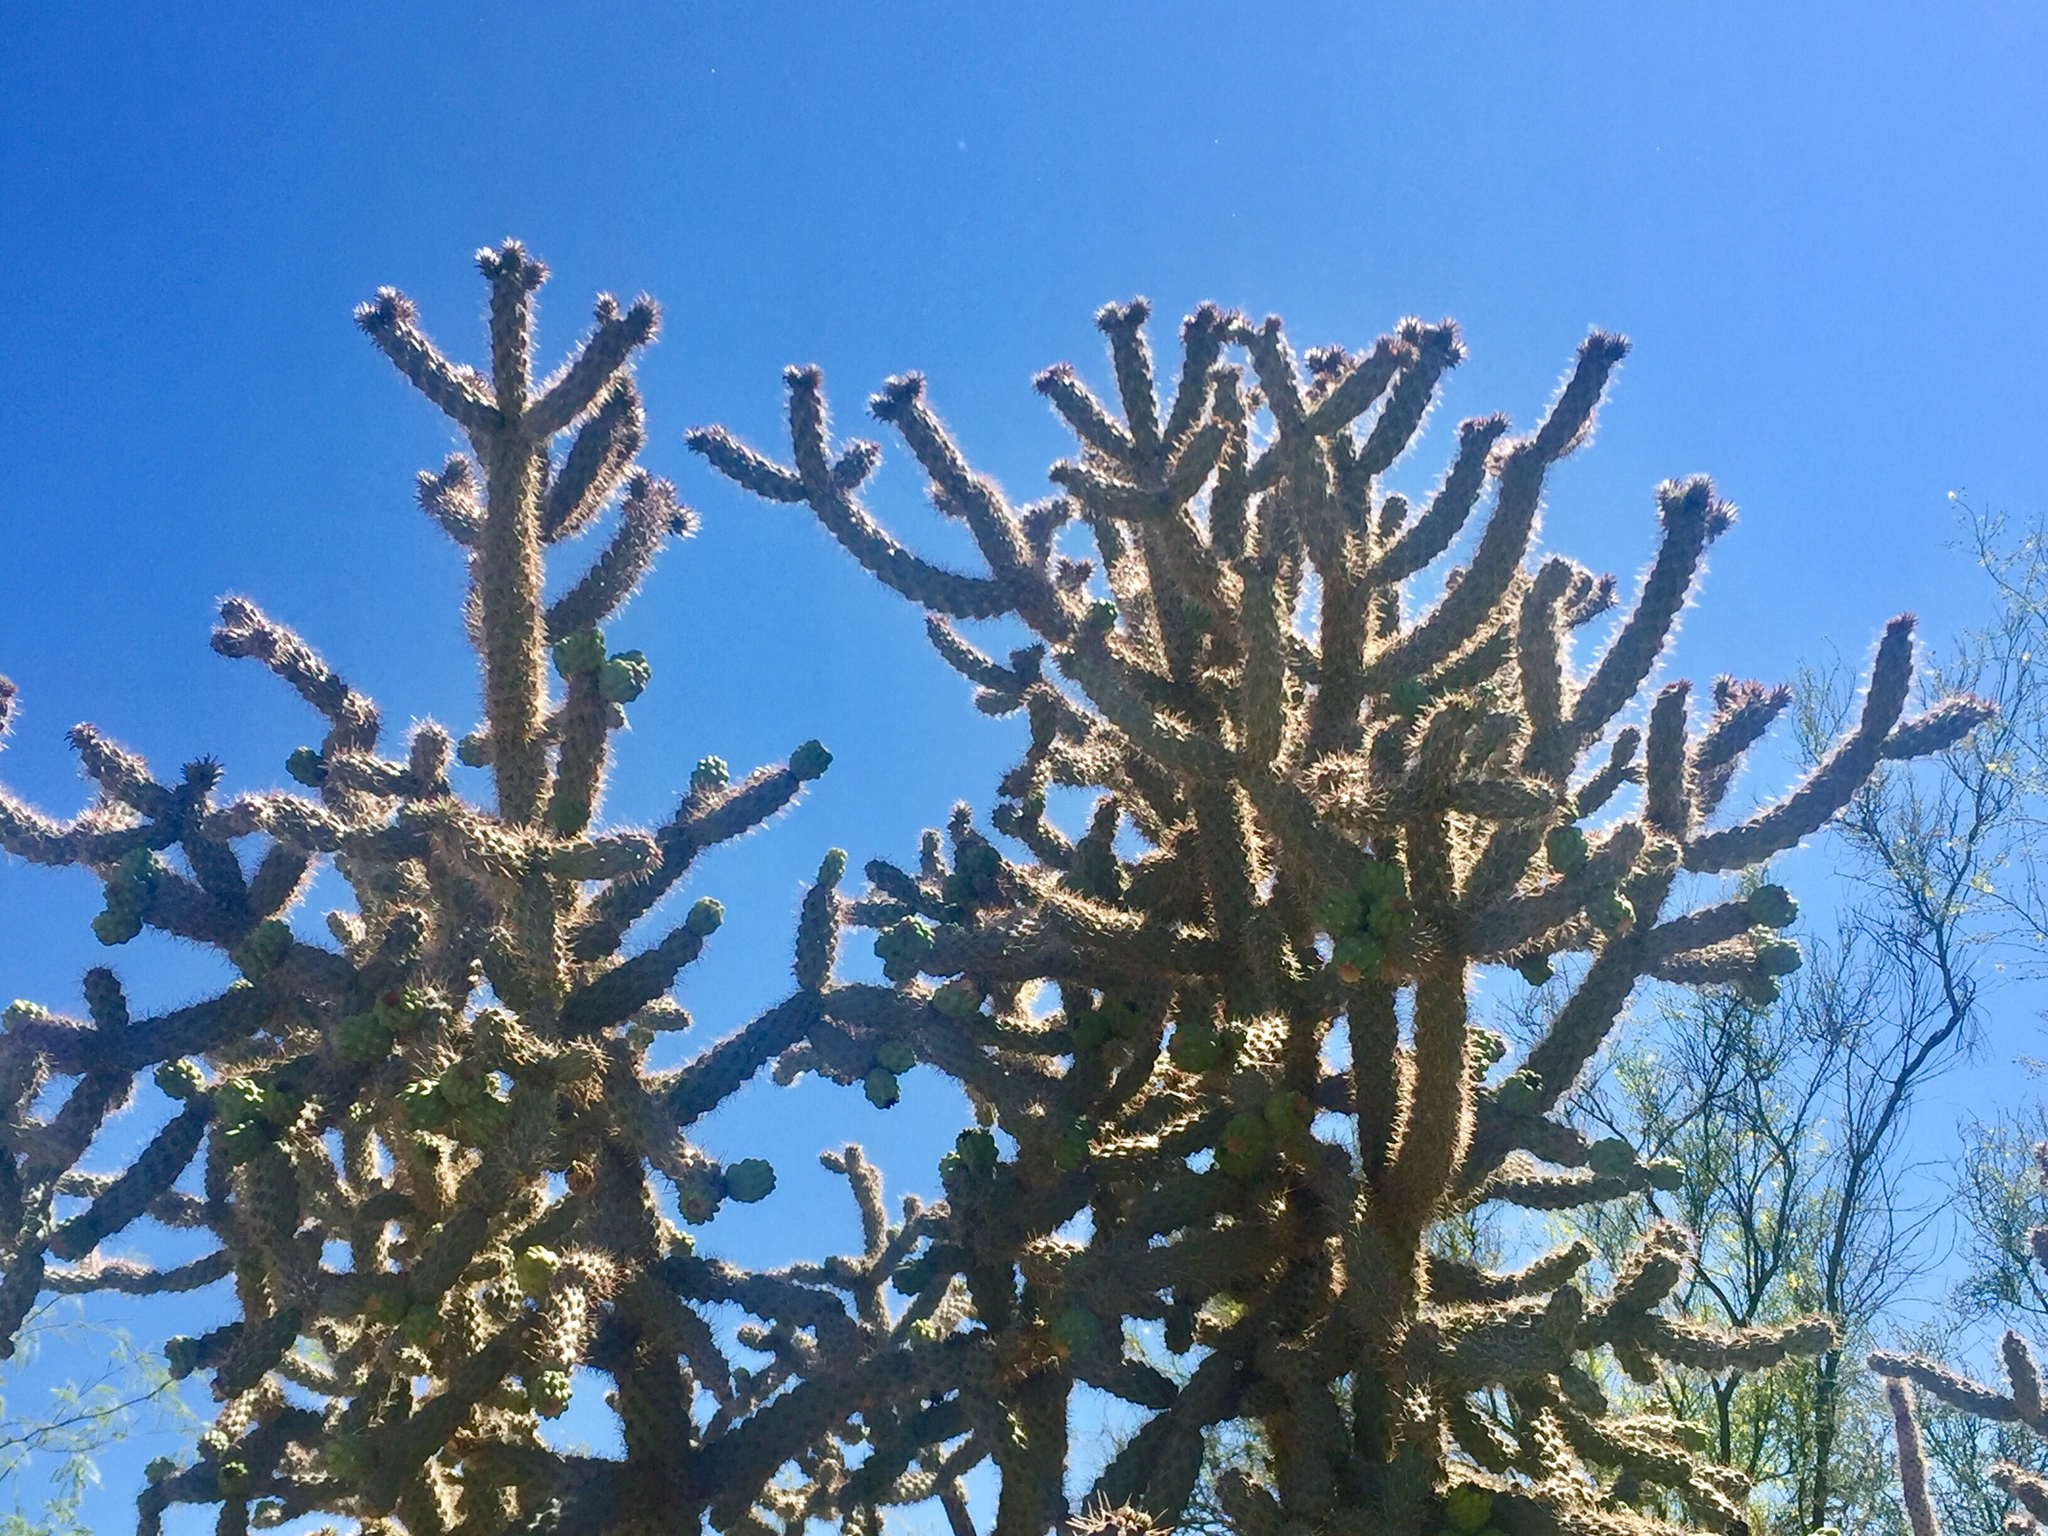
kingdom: Plantae
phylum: Tracheophyta
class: Magnoliopsida
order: Caryophyllales
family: Cactaceae
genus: Cylindropuntia
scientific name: Cylindropuntia imbricata
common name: Candelabrum cactus
